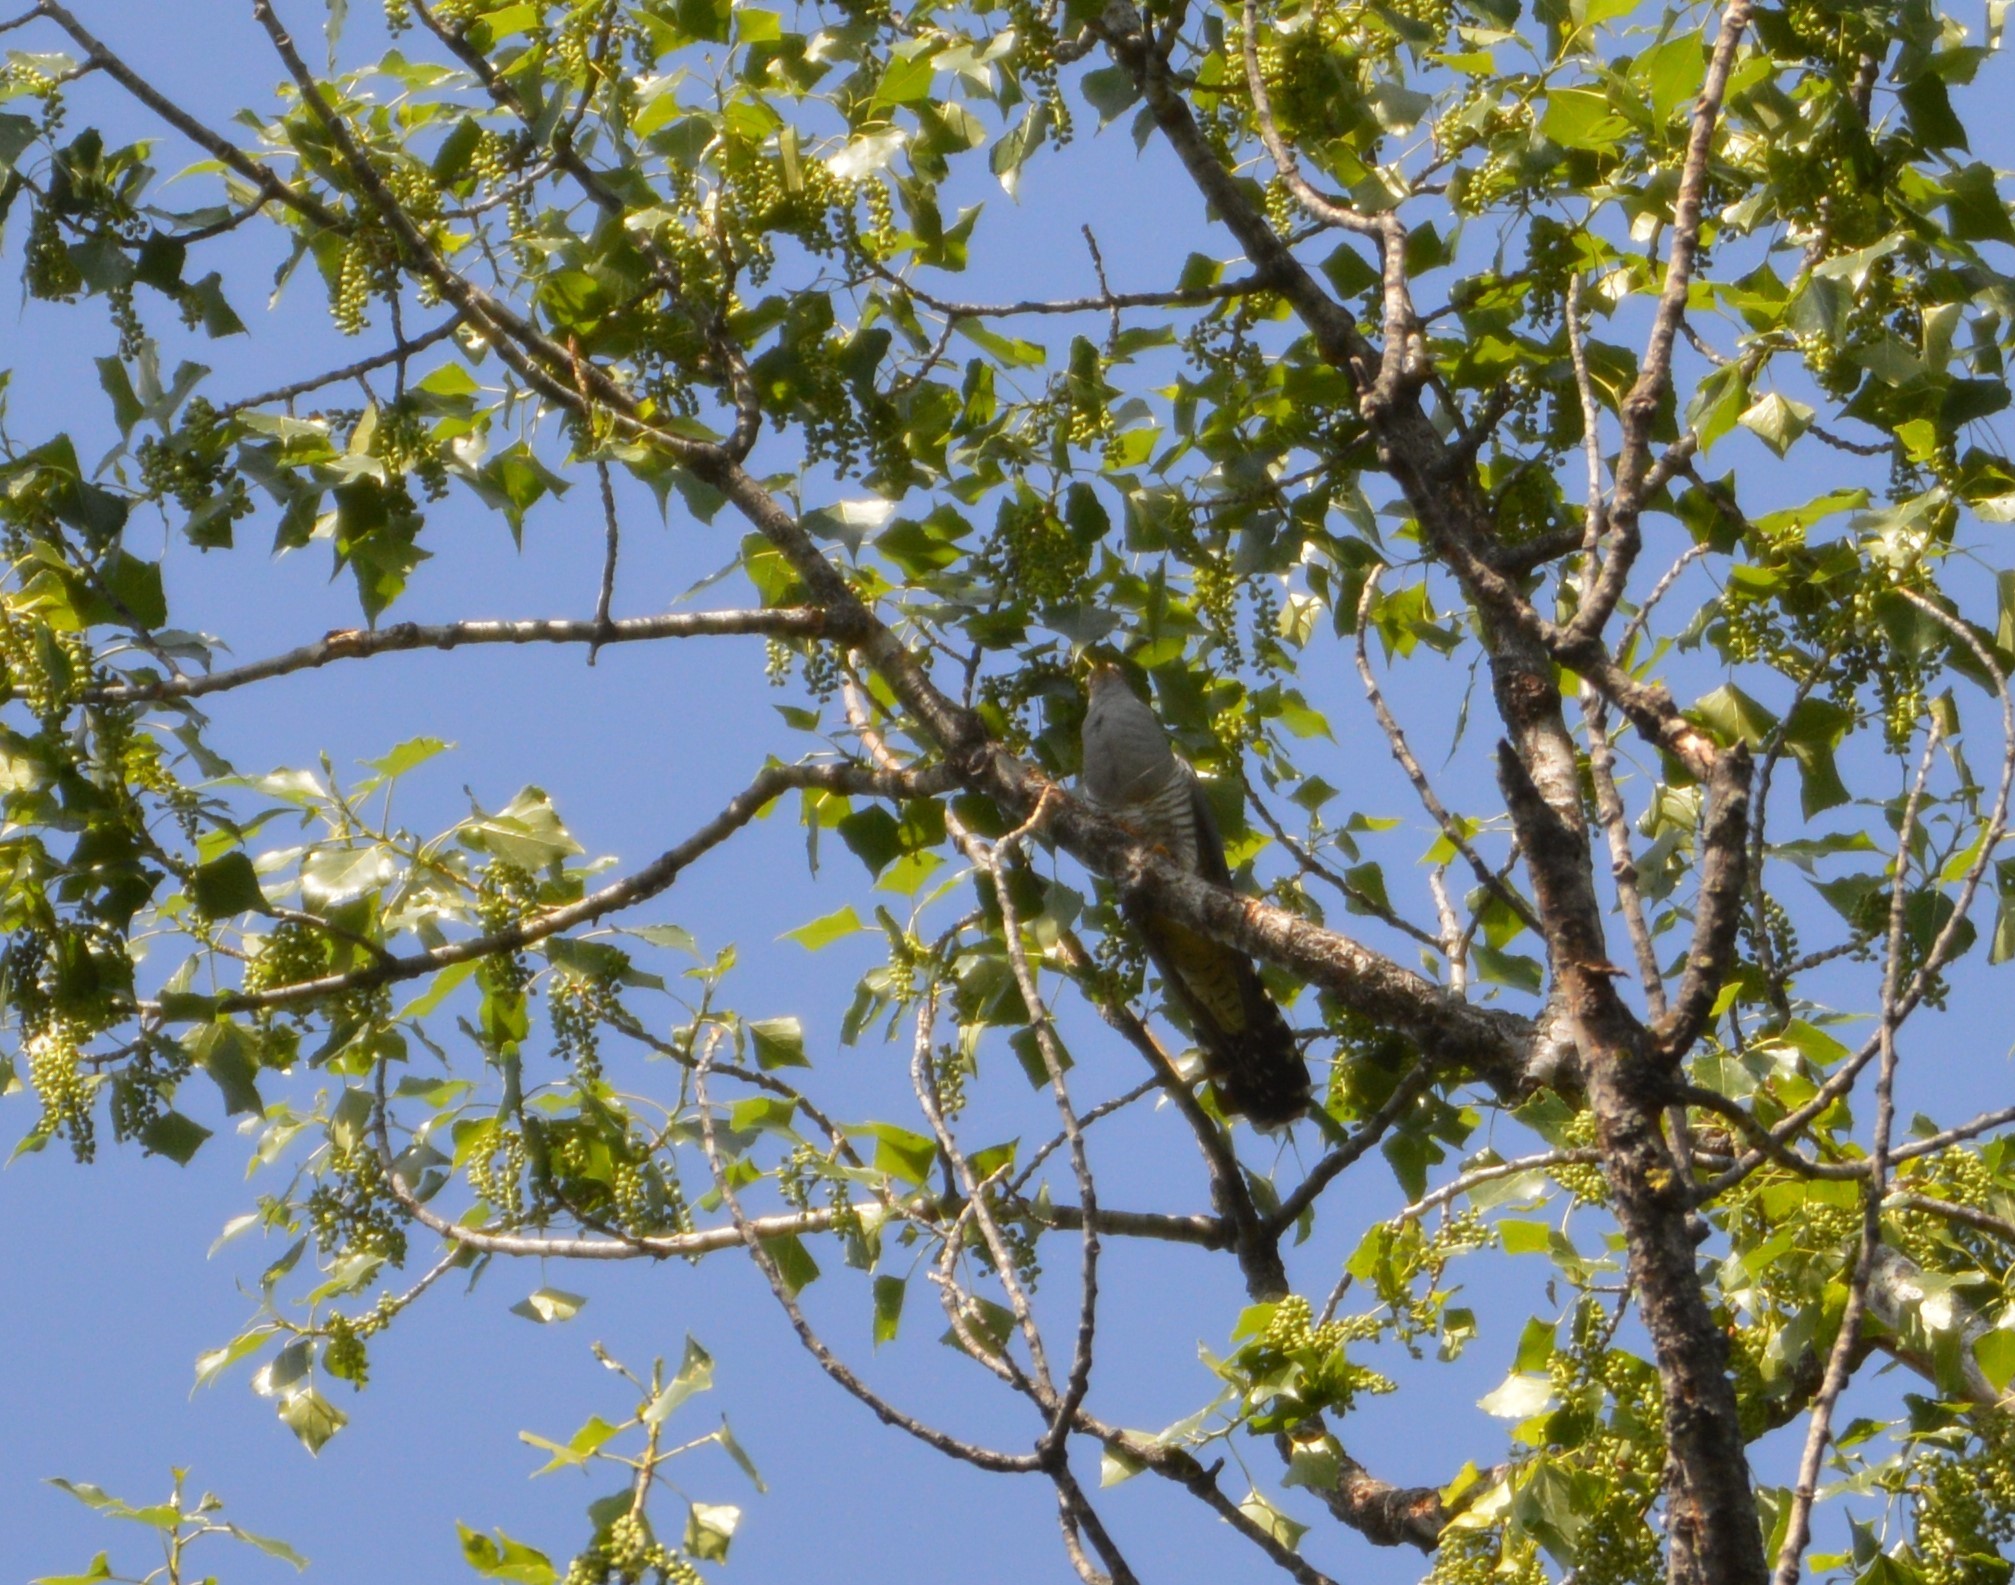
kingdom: Animalia
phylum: Chordata
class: Aves
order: Cuculiformes
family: Cuculidae
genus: Cuculus
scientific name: Cuculus canorus
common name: Common cuckoo
